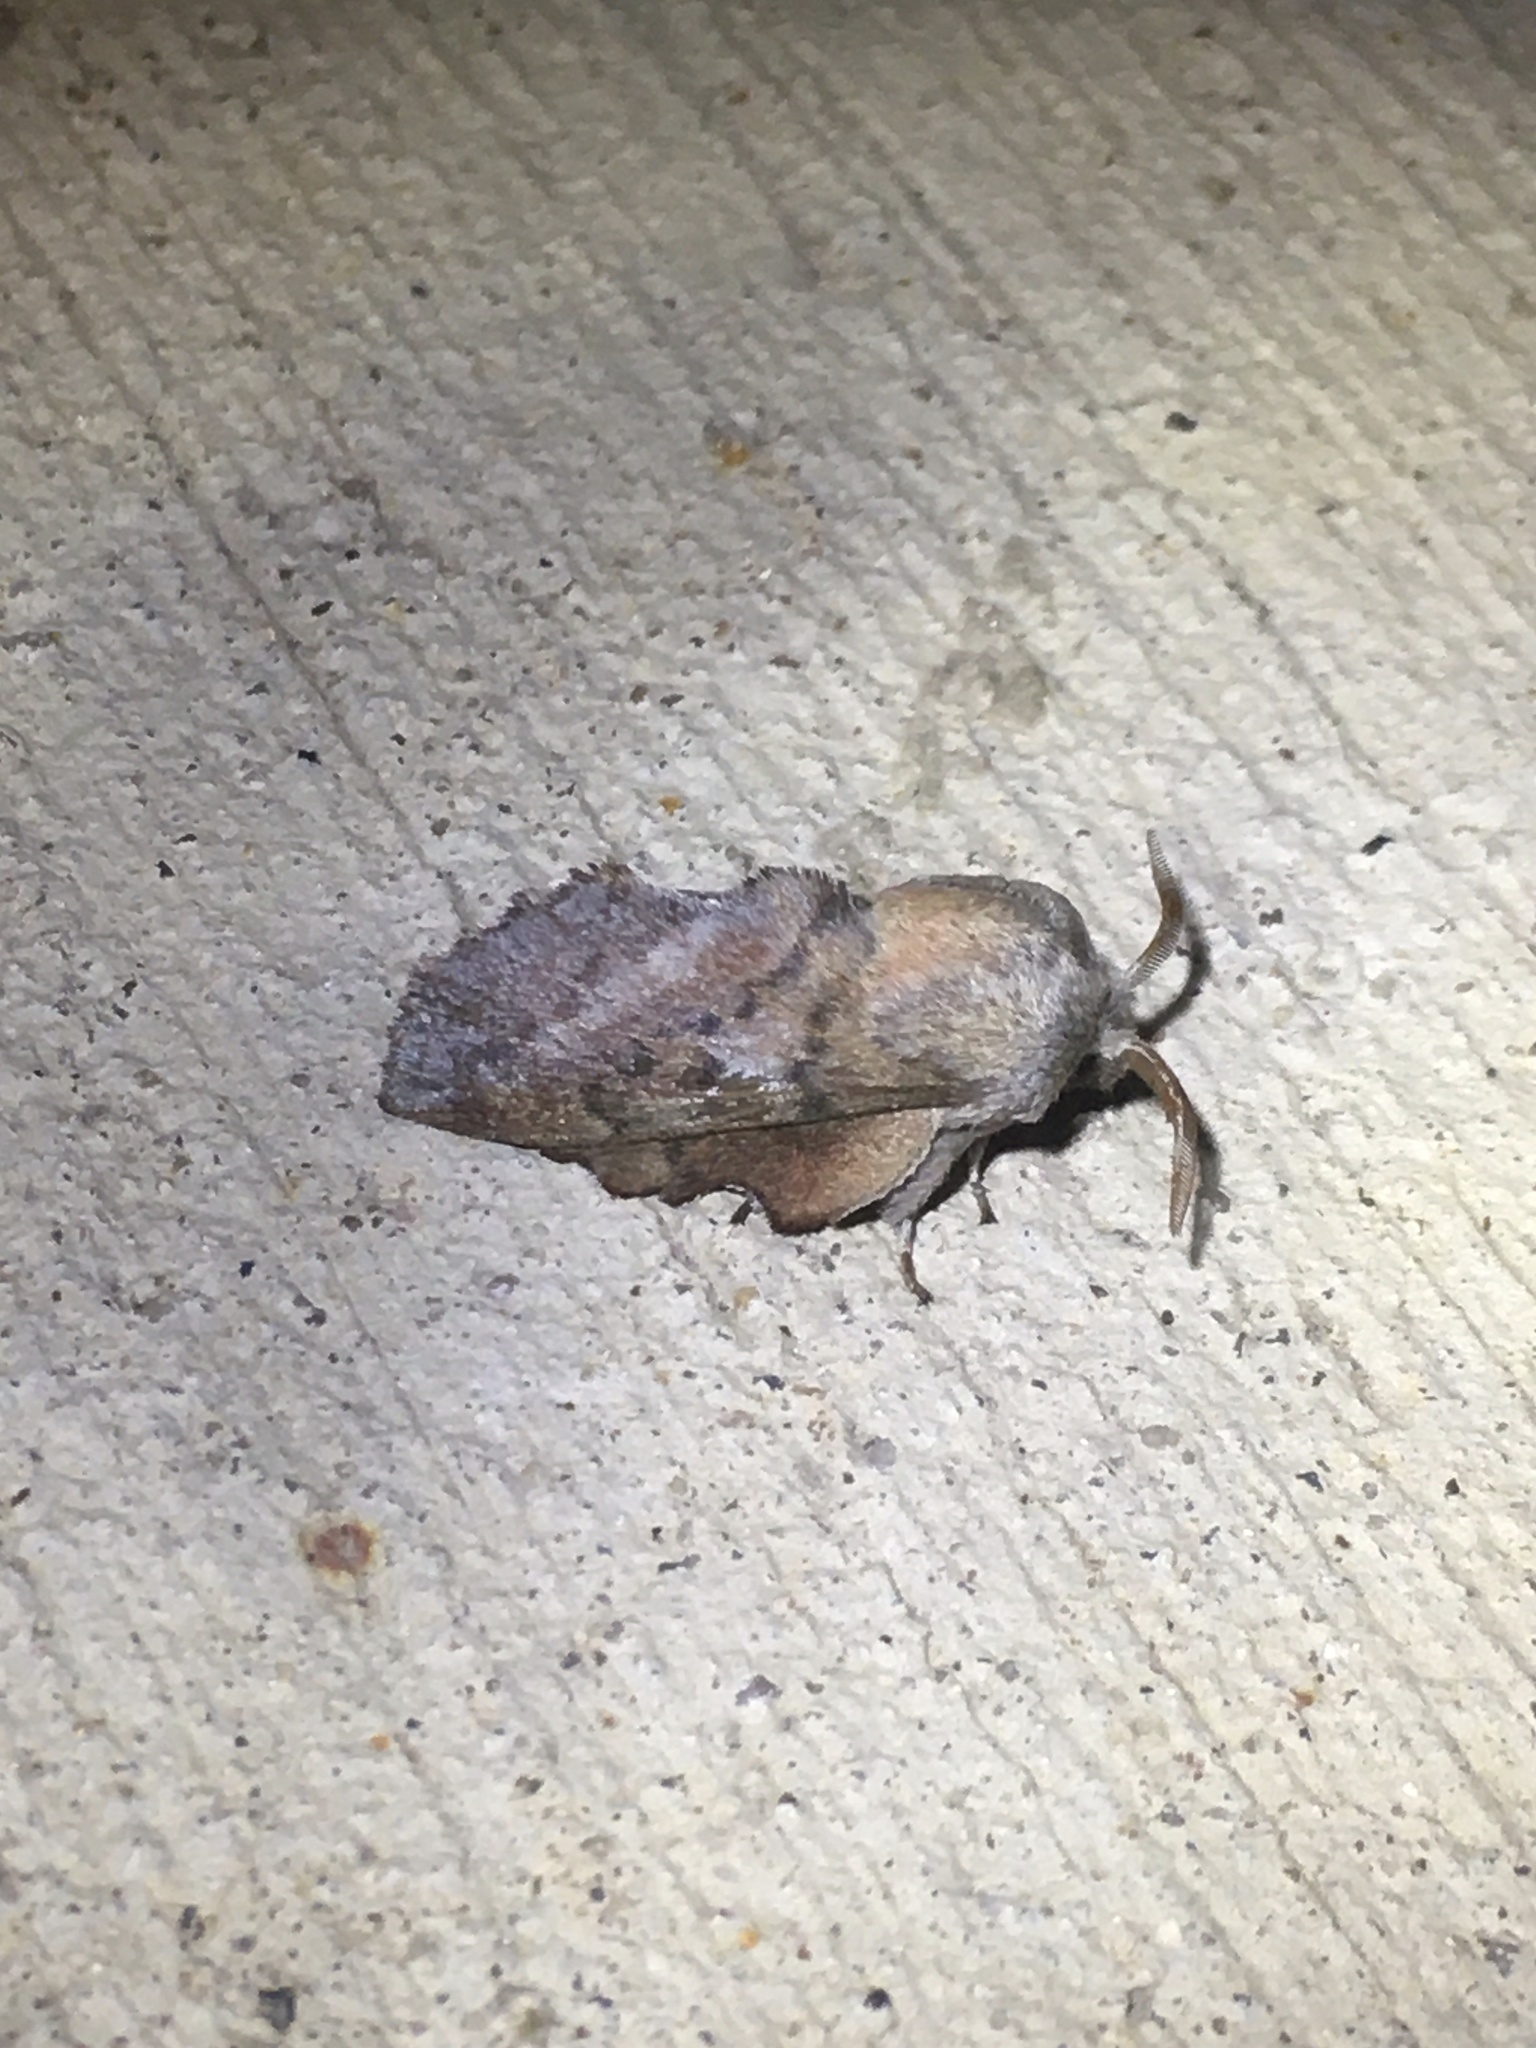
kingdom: Animalia
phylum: Arthropoda
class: Insecta
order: Lepidoptera
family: Lasiocampidae
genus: Phyllodesma
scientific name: Phyllodesma americana
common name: American lappet moth
